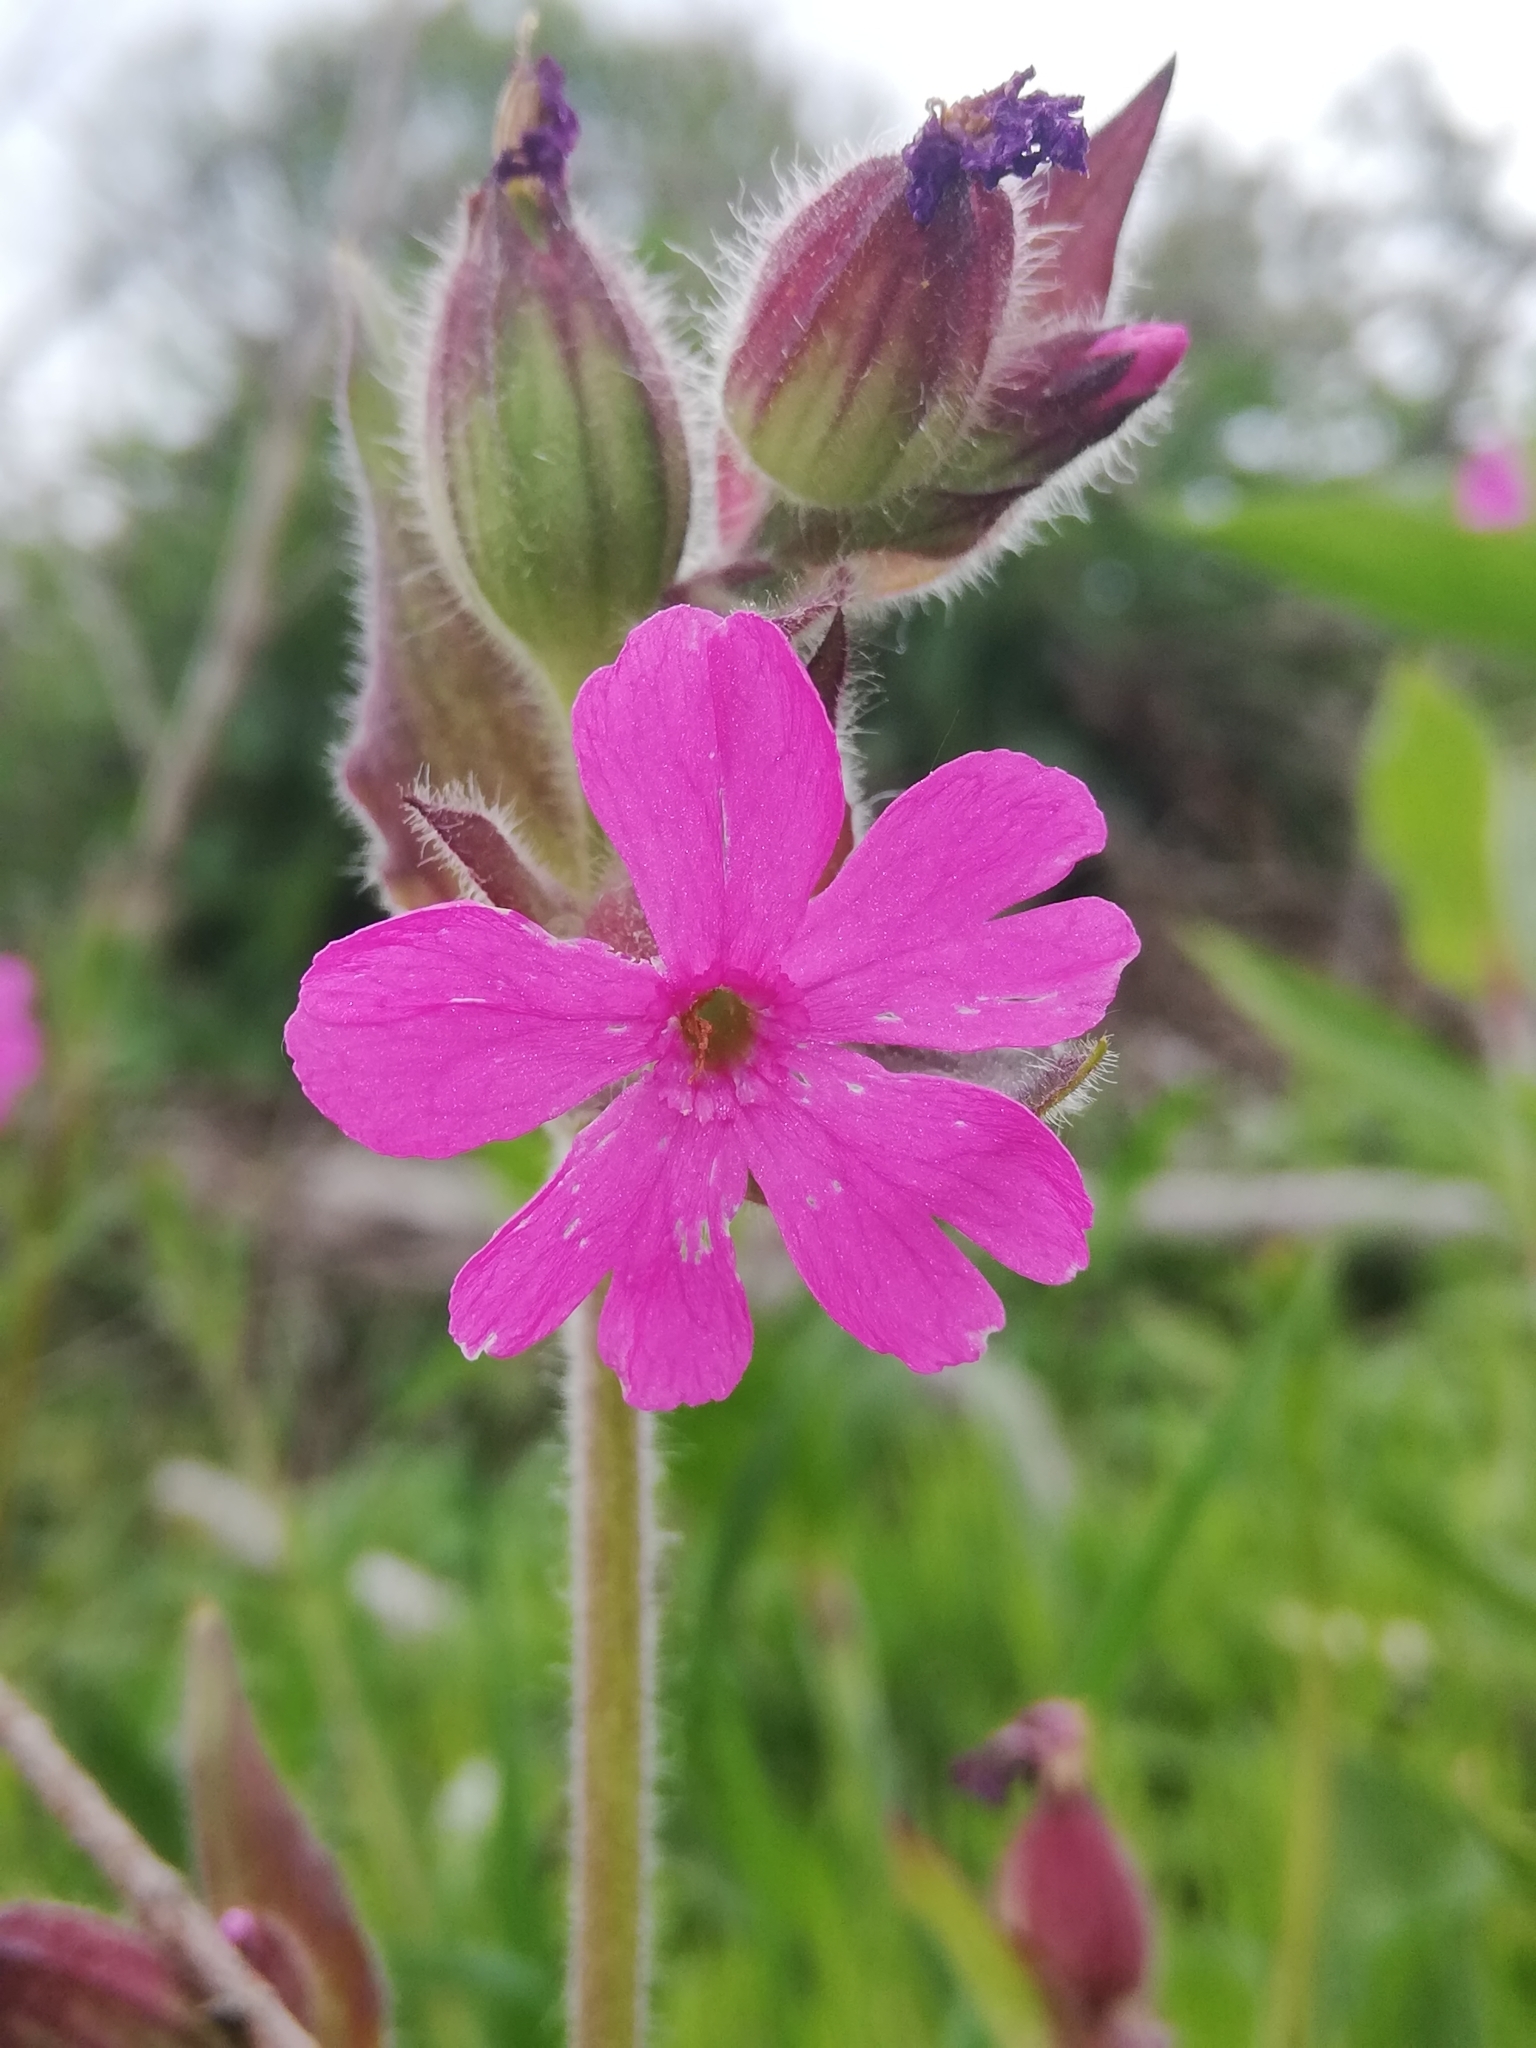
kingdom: Plantae
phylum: Tracheophyta
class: Magnoliopsida
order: Caryophyllales
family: Caryophyllaceae
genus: Silene
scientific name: Silene dioica
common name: Red campion
